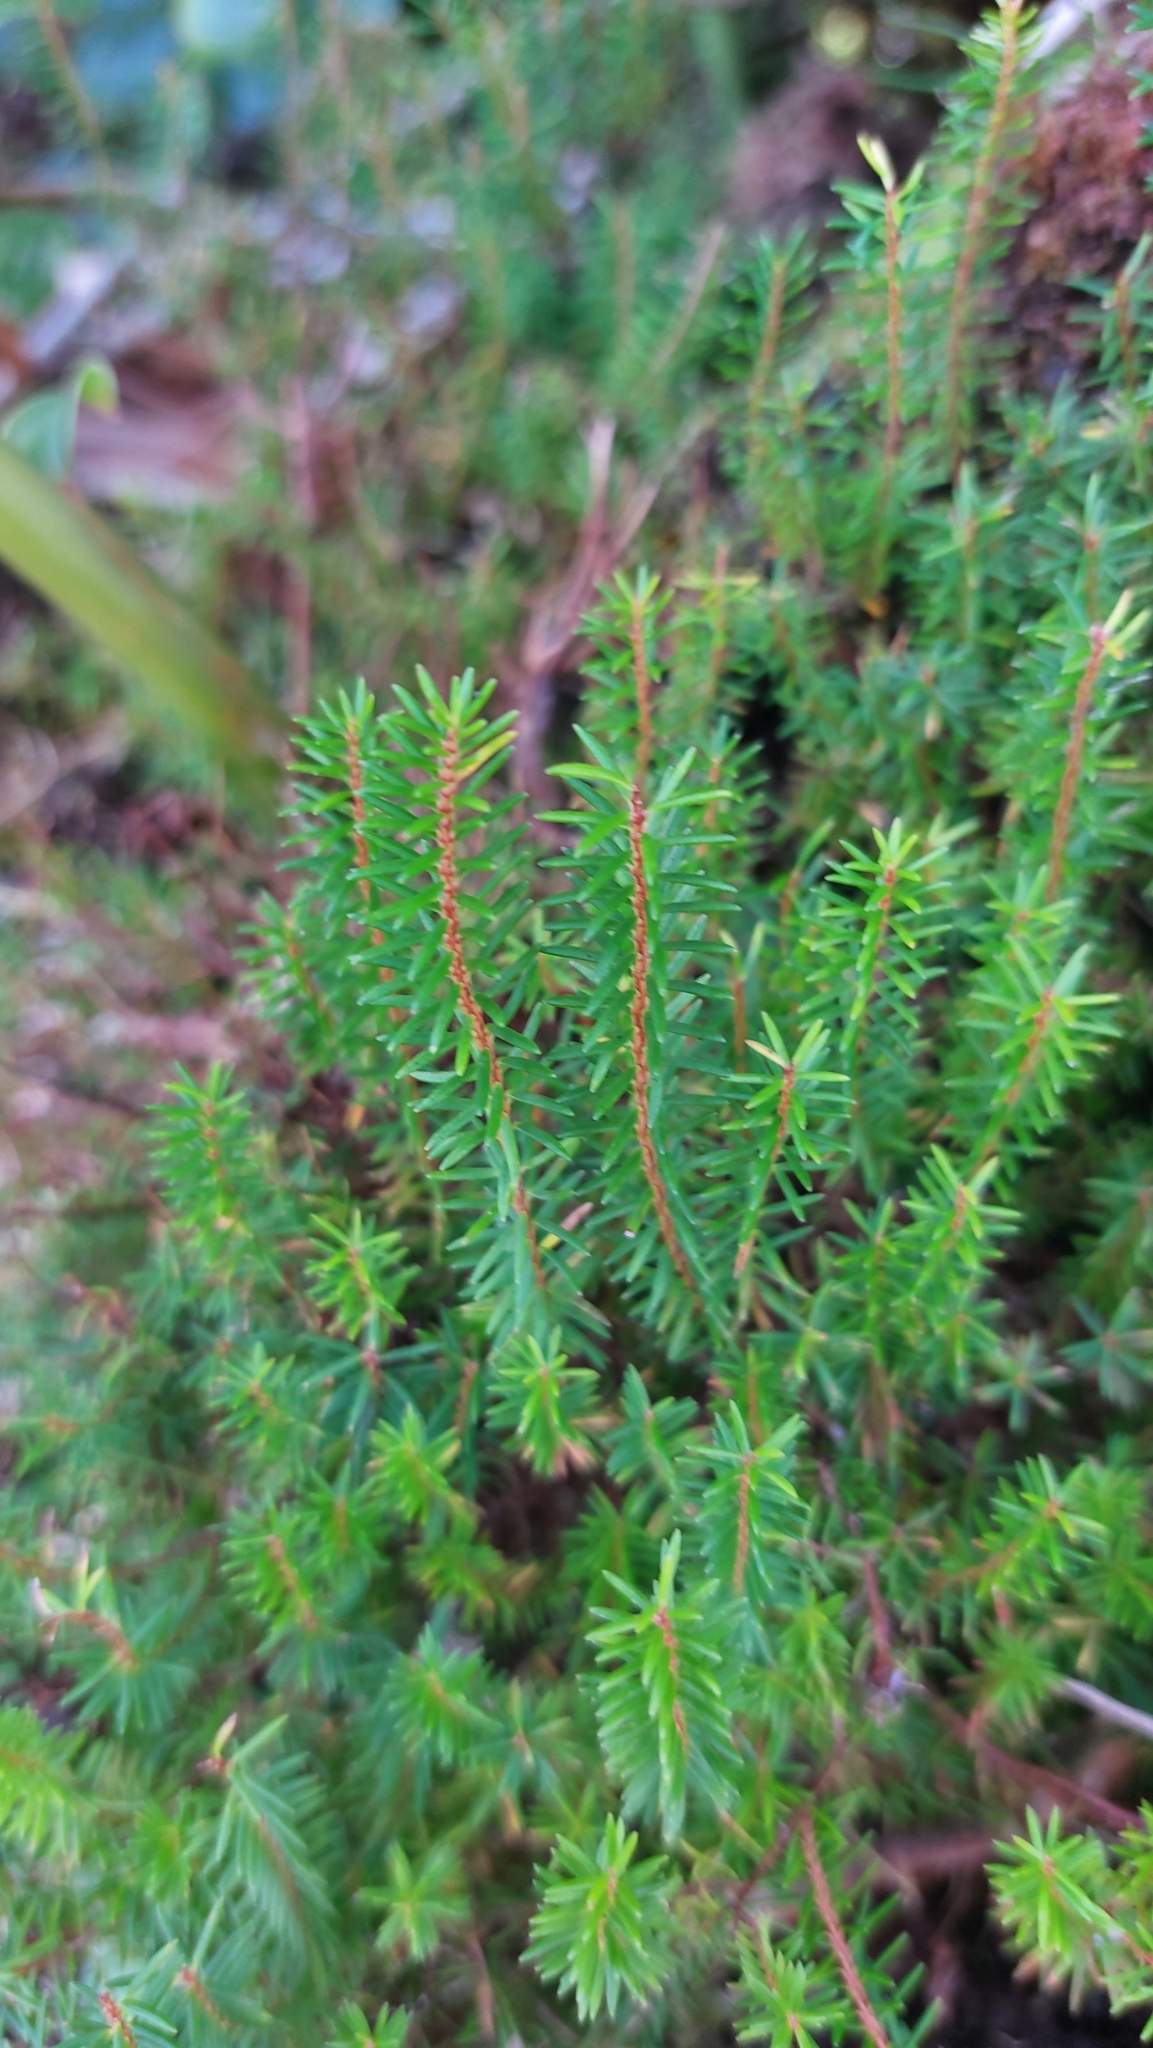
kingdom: Plantae
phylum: Tracheophyta
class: Magnoliopsida
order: Ericales
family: Ericaceae
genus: Erica
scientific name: Erica azorica
